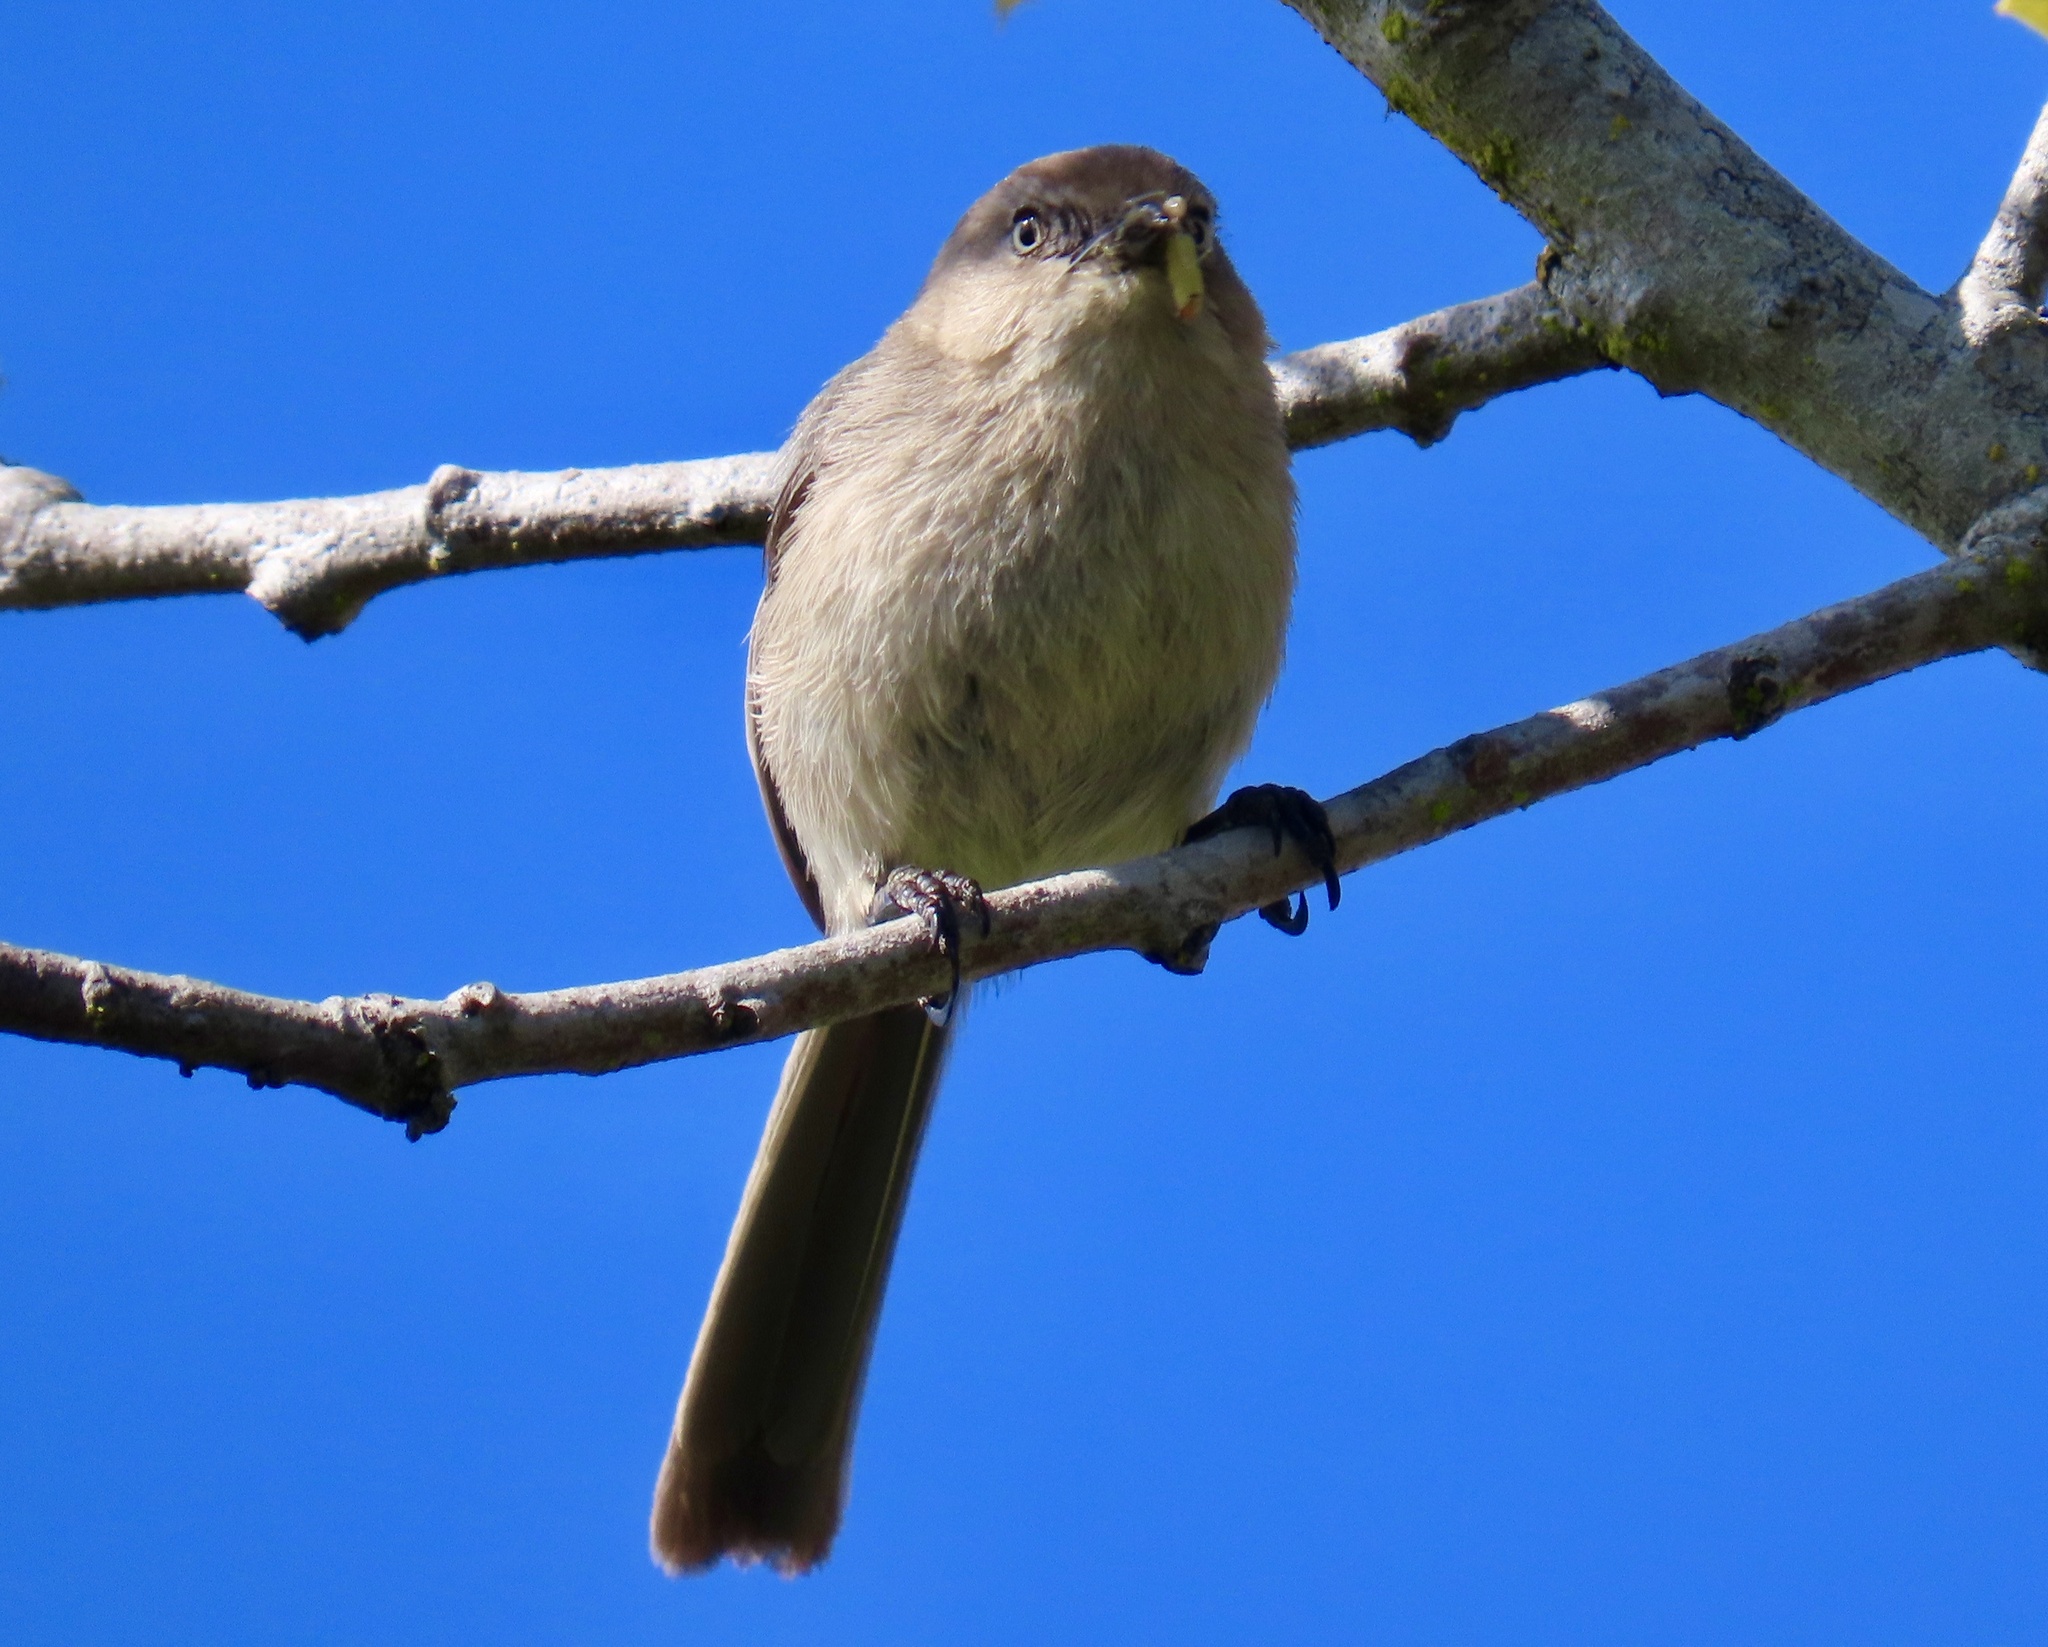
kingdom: Animalia
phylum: Chordata
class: Aves
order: Passeriformes
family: Aegithalidae
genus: Psaltriparus
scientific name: Psaltriparus minimus
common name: American bushtit
